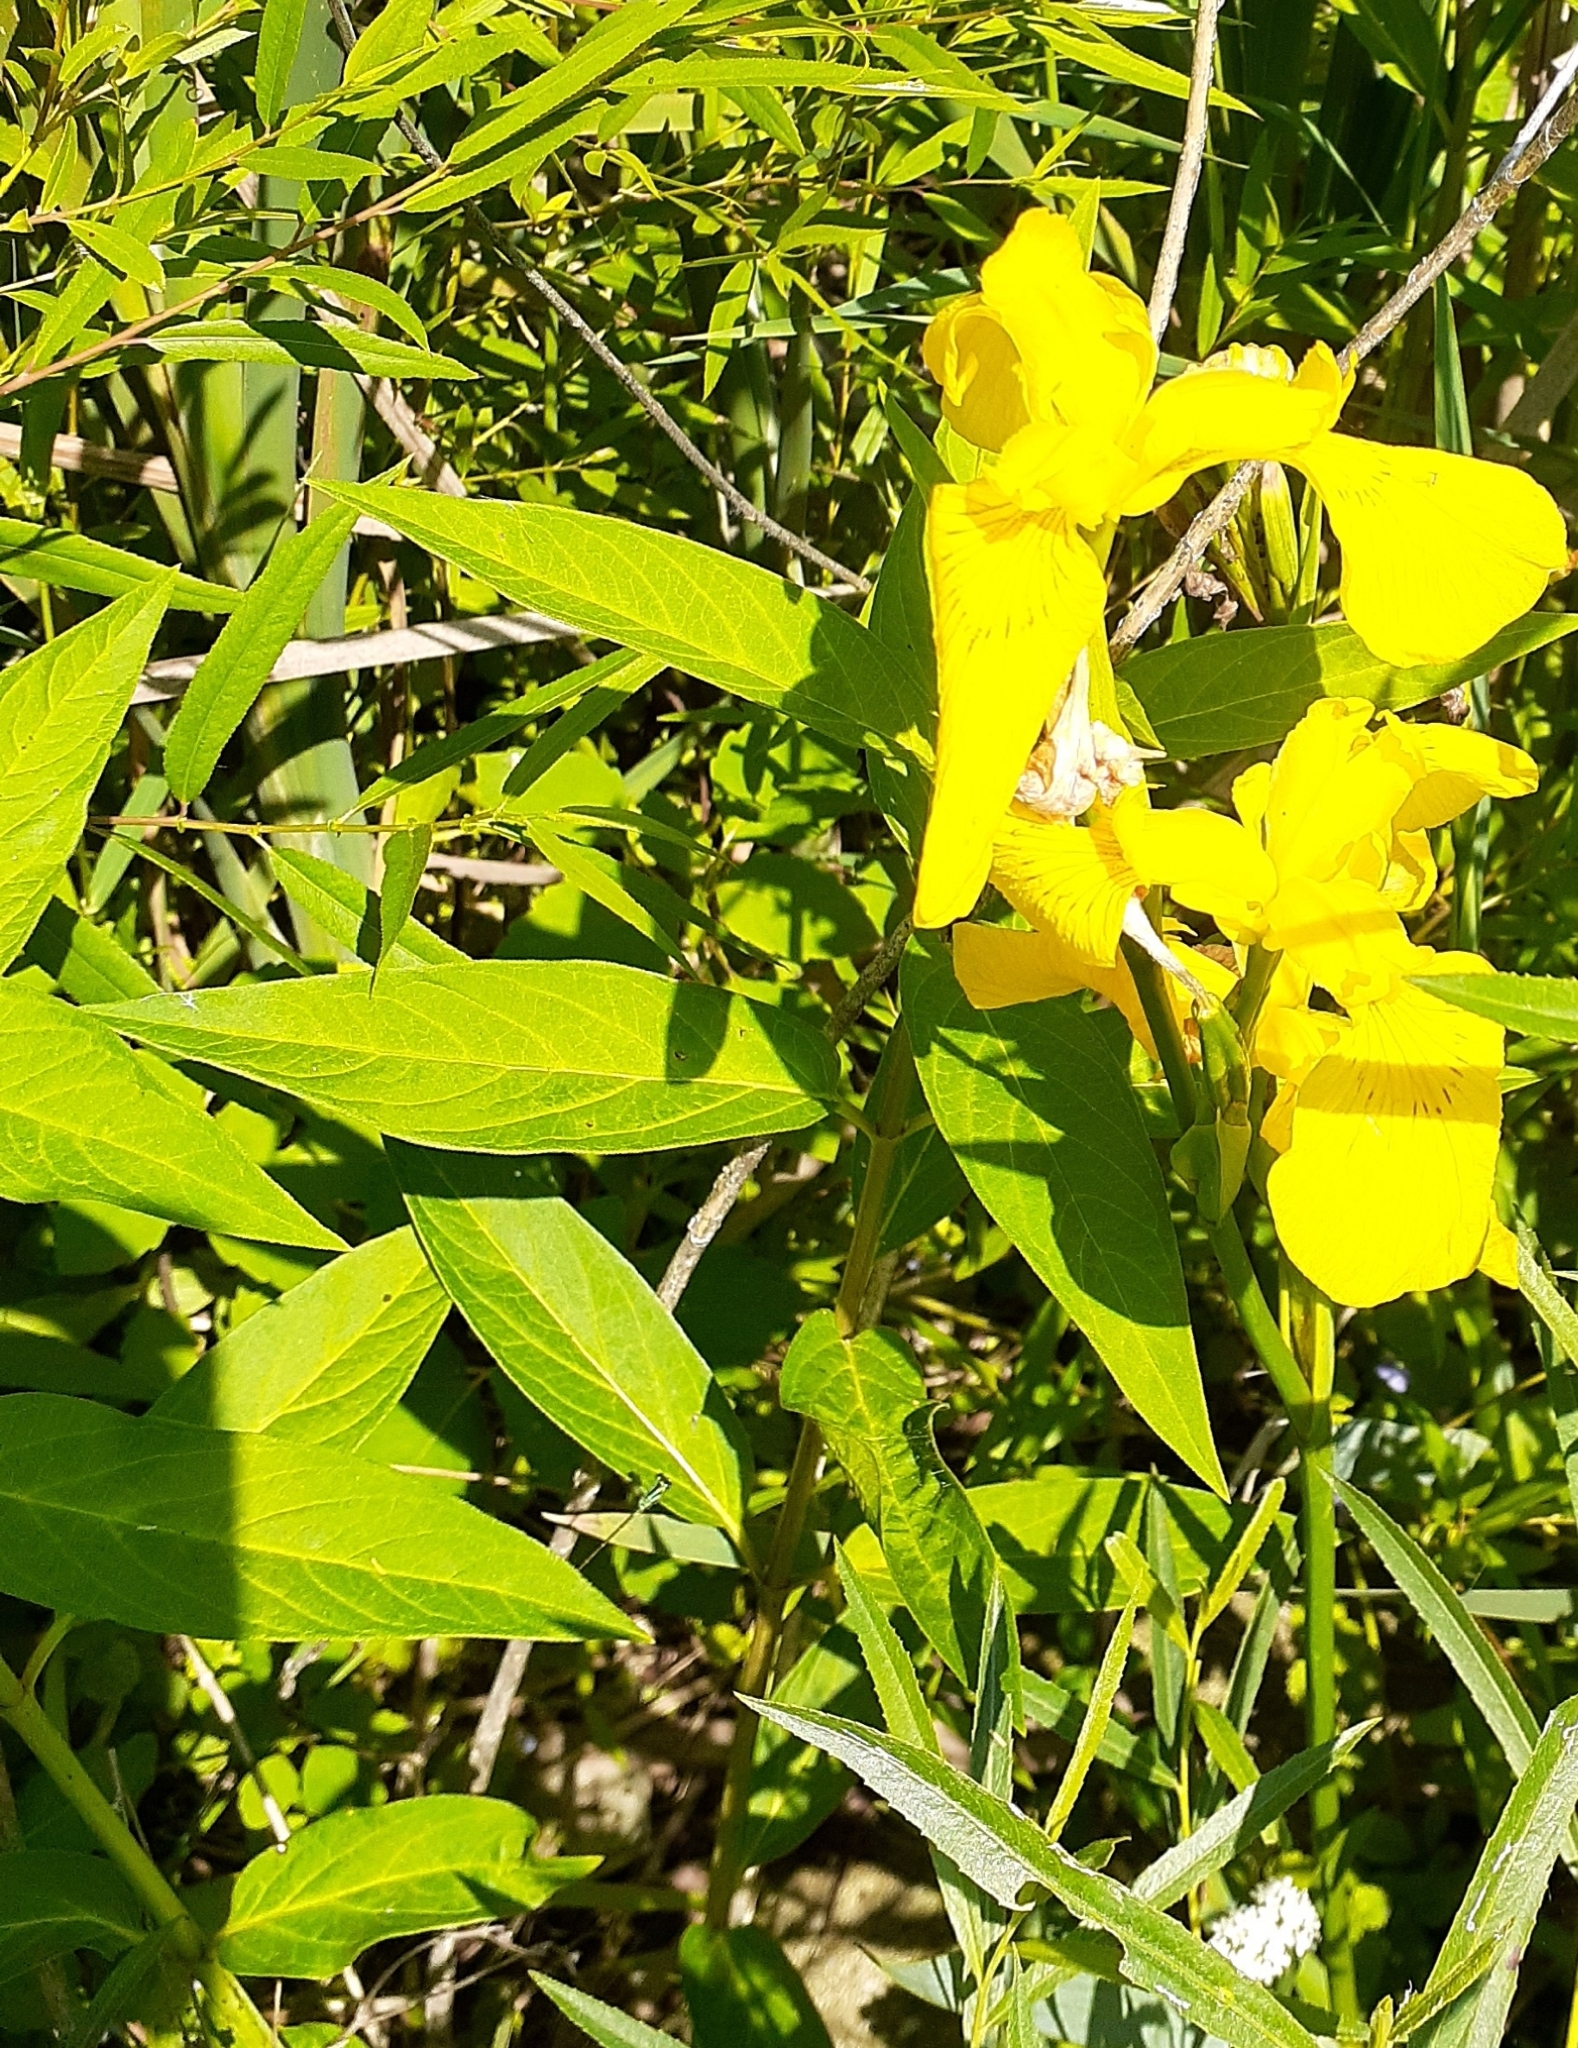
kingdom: Plantae
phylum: Tracheophyta
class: Liliopsida
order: Asparagales
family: Iridaceae
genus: Iris
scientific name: Iris pseudacorus
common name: Yellow flag
